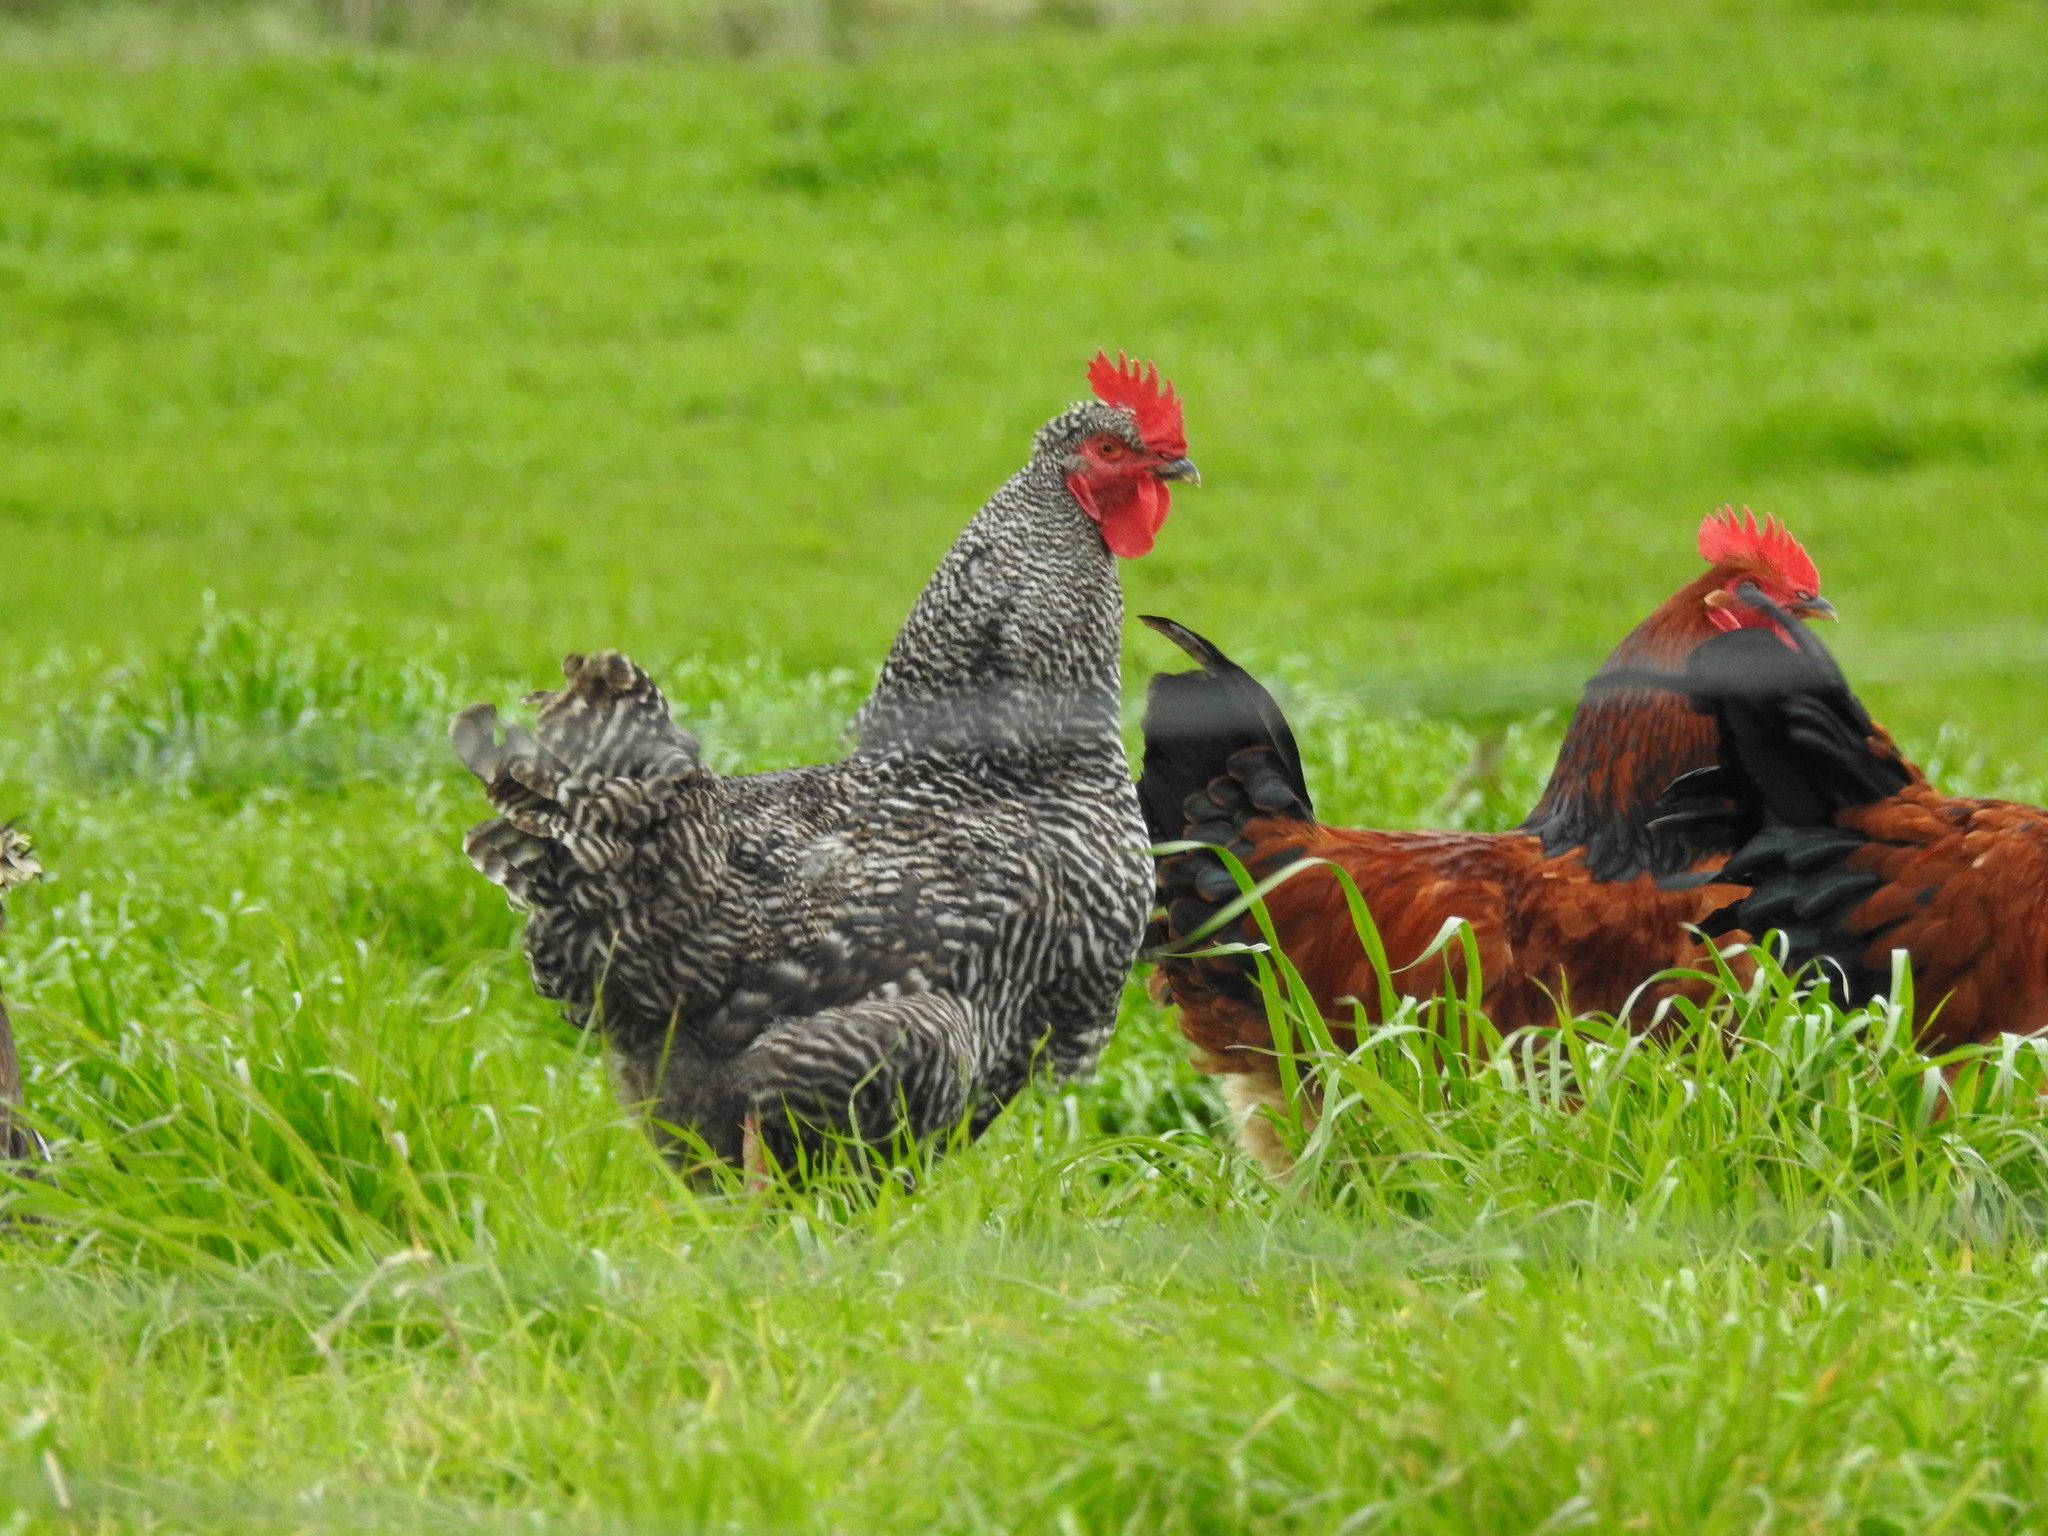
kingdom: Animalia
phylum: Chordata
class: Aves
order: Galliformes
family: Phasianidae
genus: Gallus
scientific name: Gallus gallus
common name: Red junglefowl
